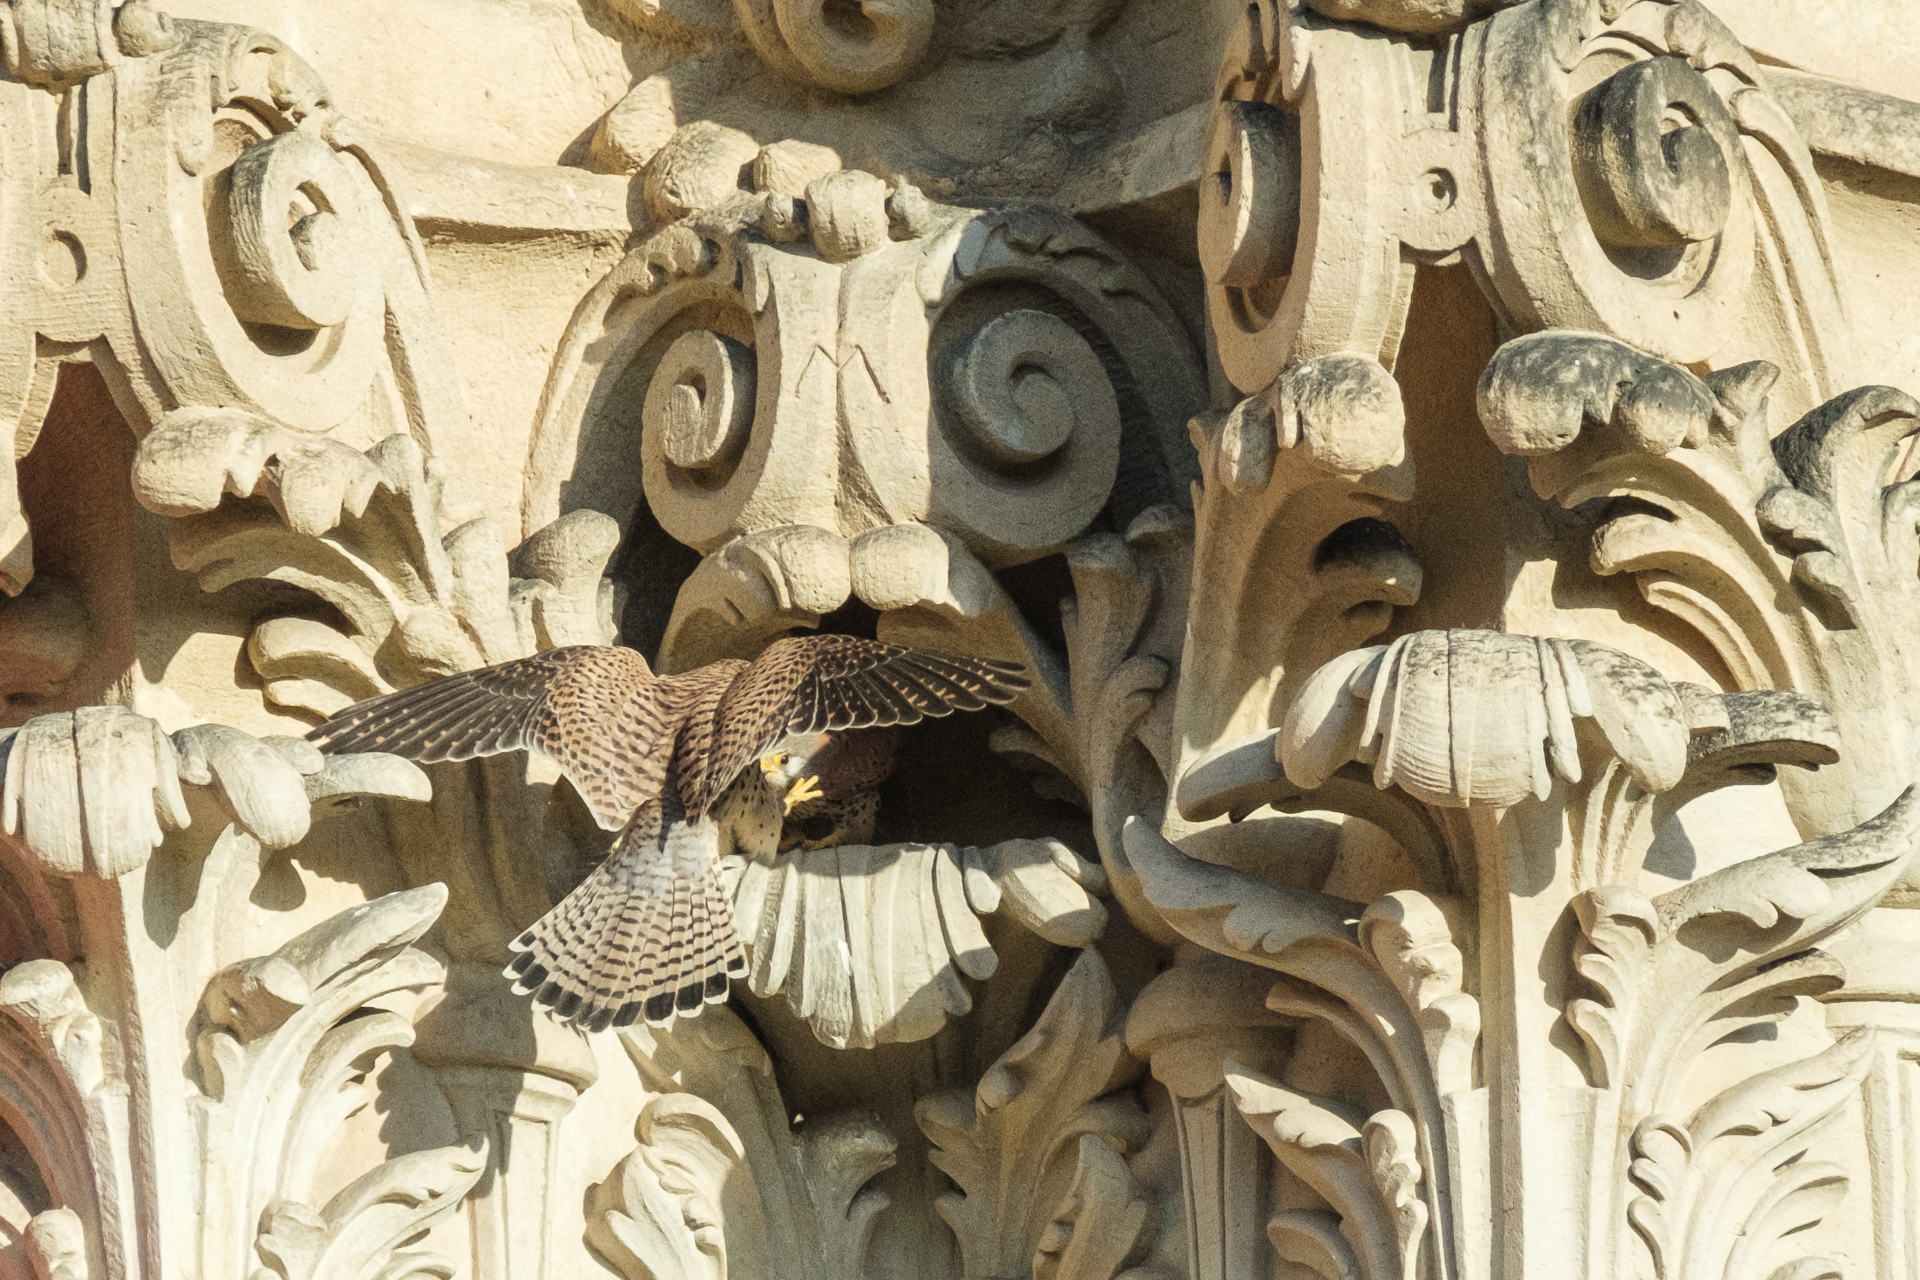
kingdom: Animalia
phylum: Chordata
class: Aves
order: Falconiformes
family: Falconidae
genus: Falco
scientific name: Falco tinnunculus
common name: Common kestrel
